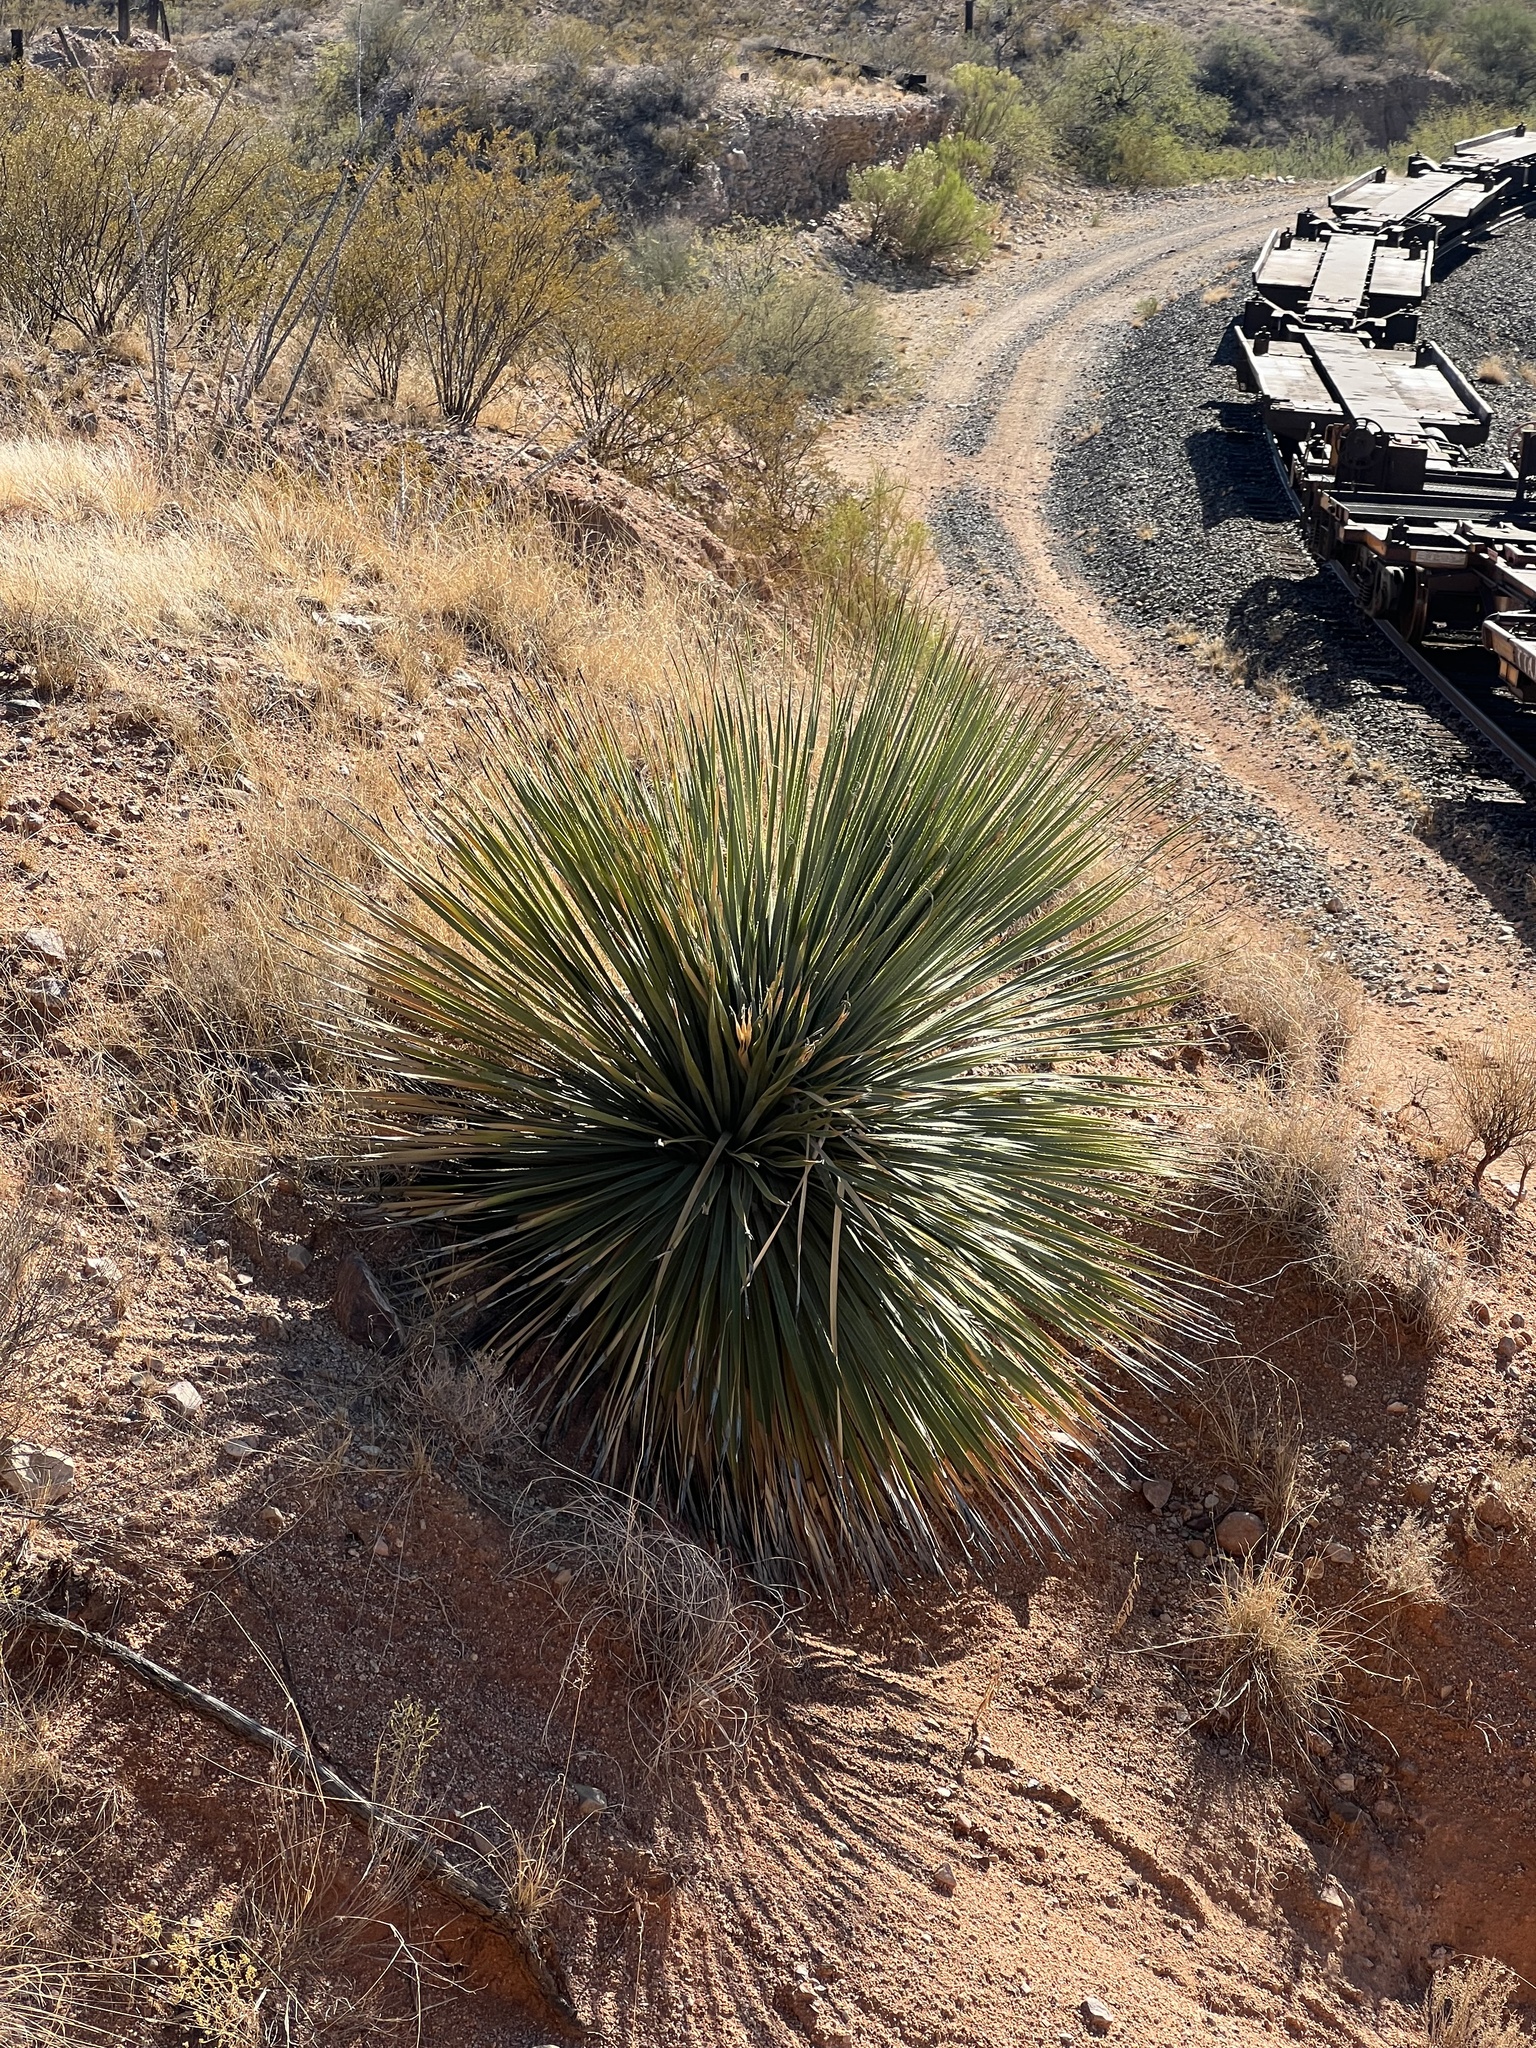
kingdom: Plantae
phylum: Tracheophyta
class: Liliopsida
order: Asparagales
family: Asparagaceae
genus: Dasylirion
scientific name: Dasylirion wheeleri
